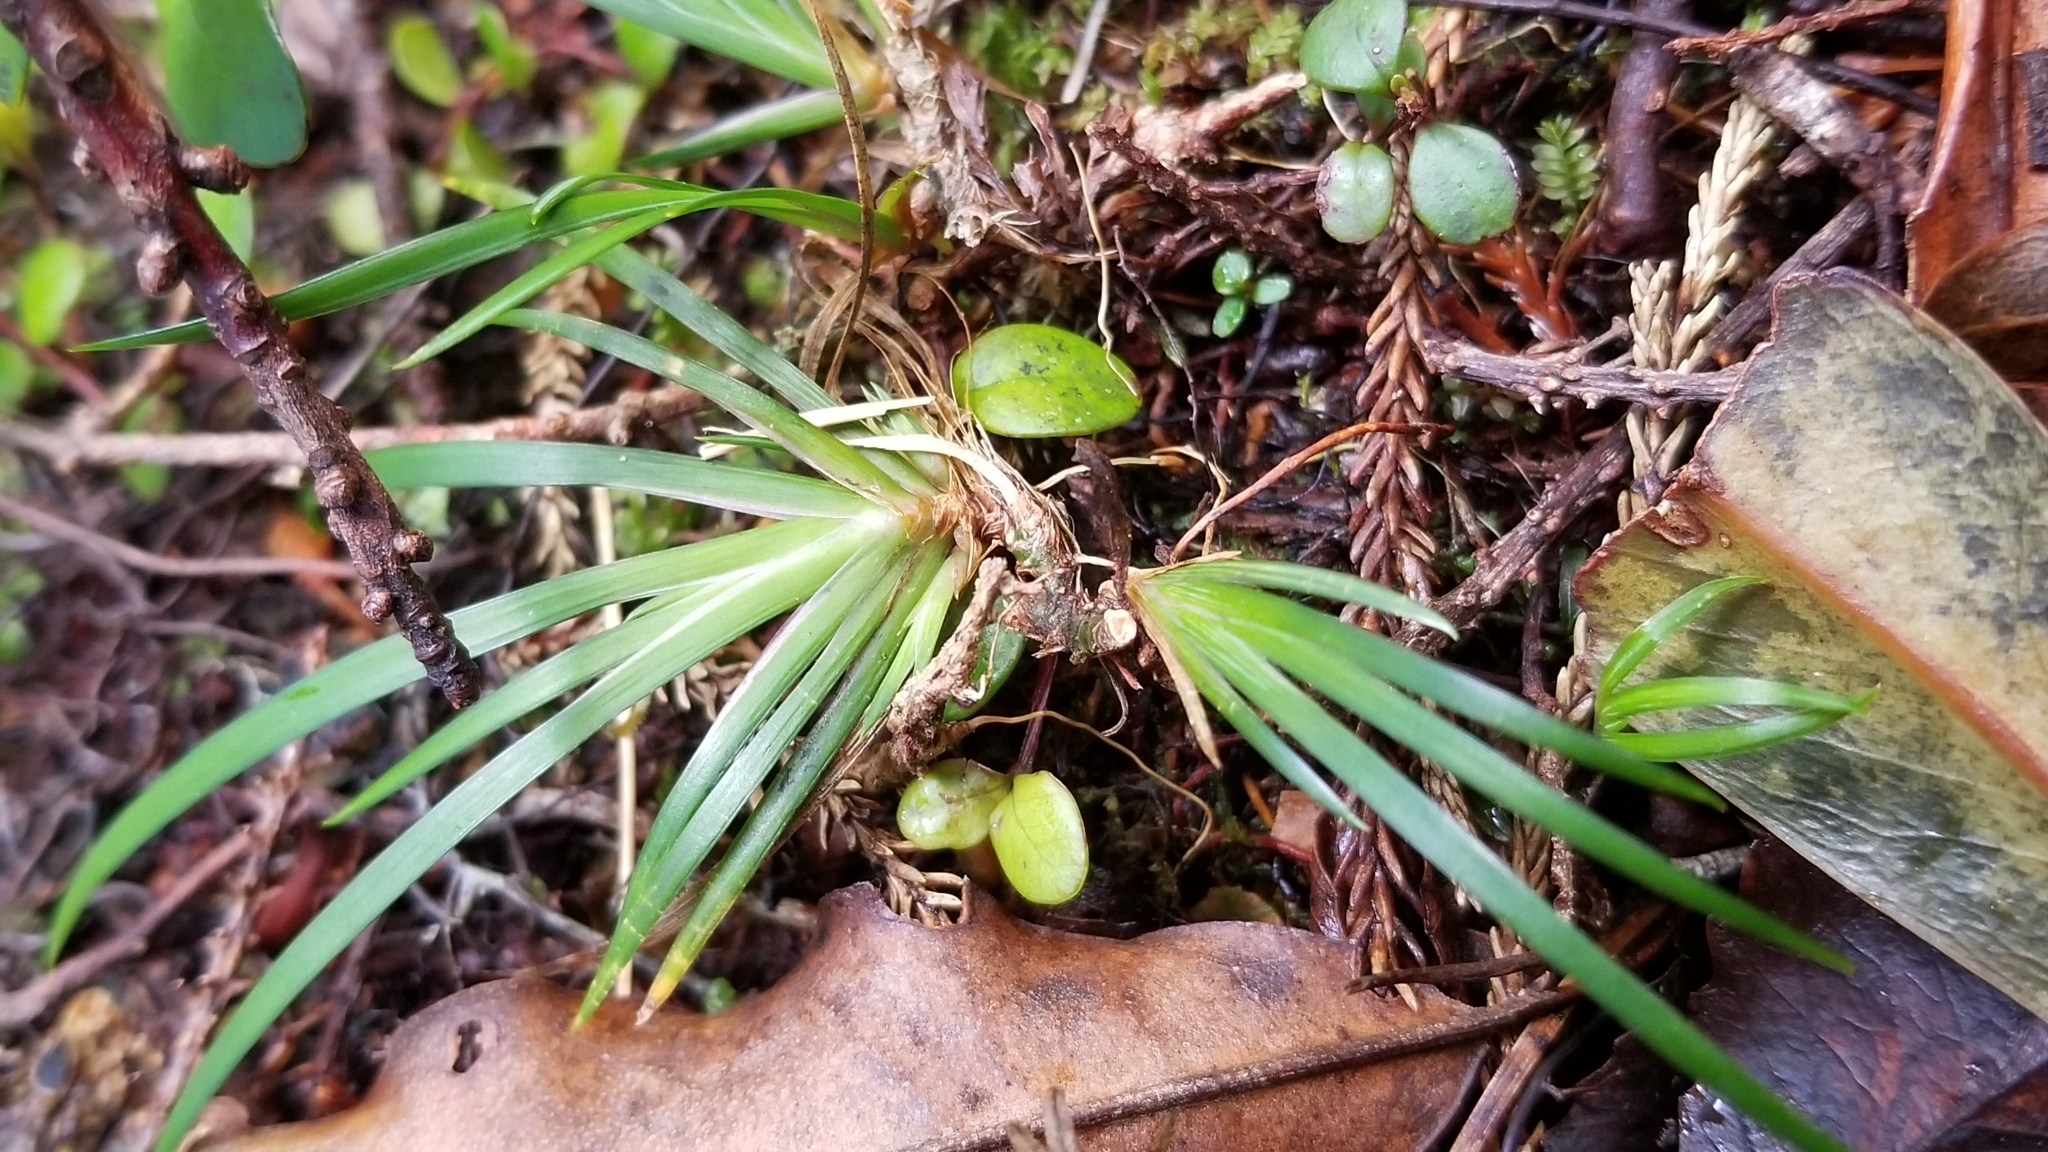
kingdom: Plantae
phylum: Tracheophyta
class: Liliopsida
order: Asparagales
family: Iridaceae
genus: Libertia
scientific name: Libertia micrantha
